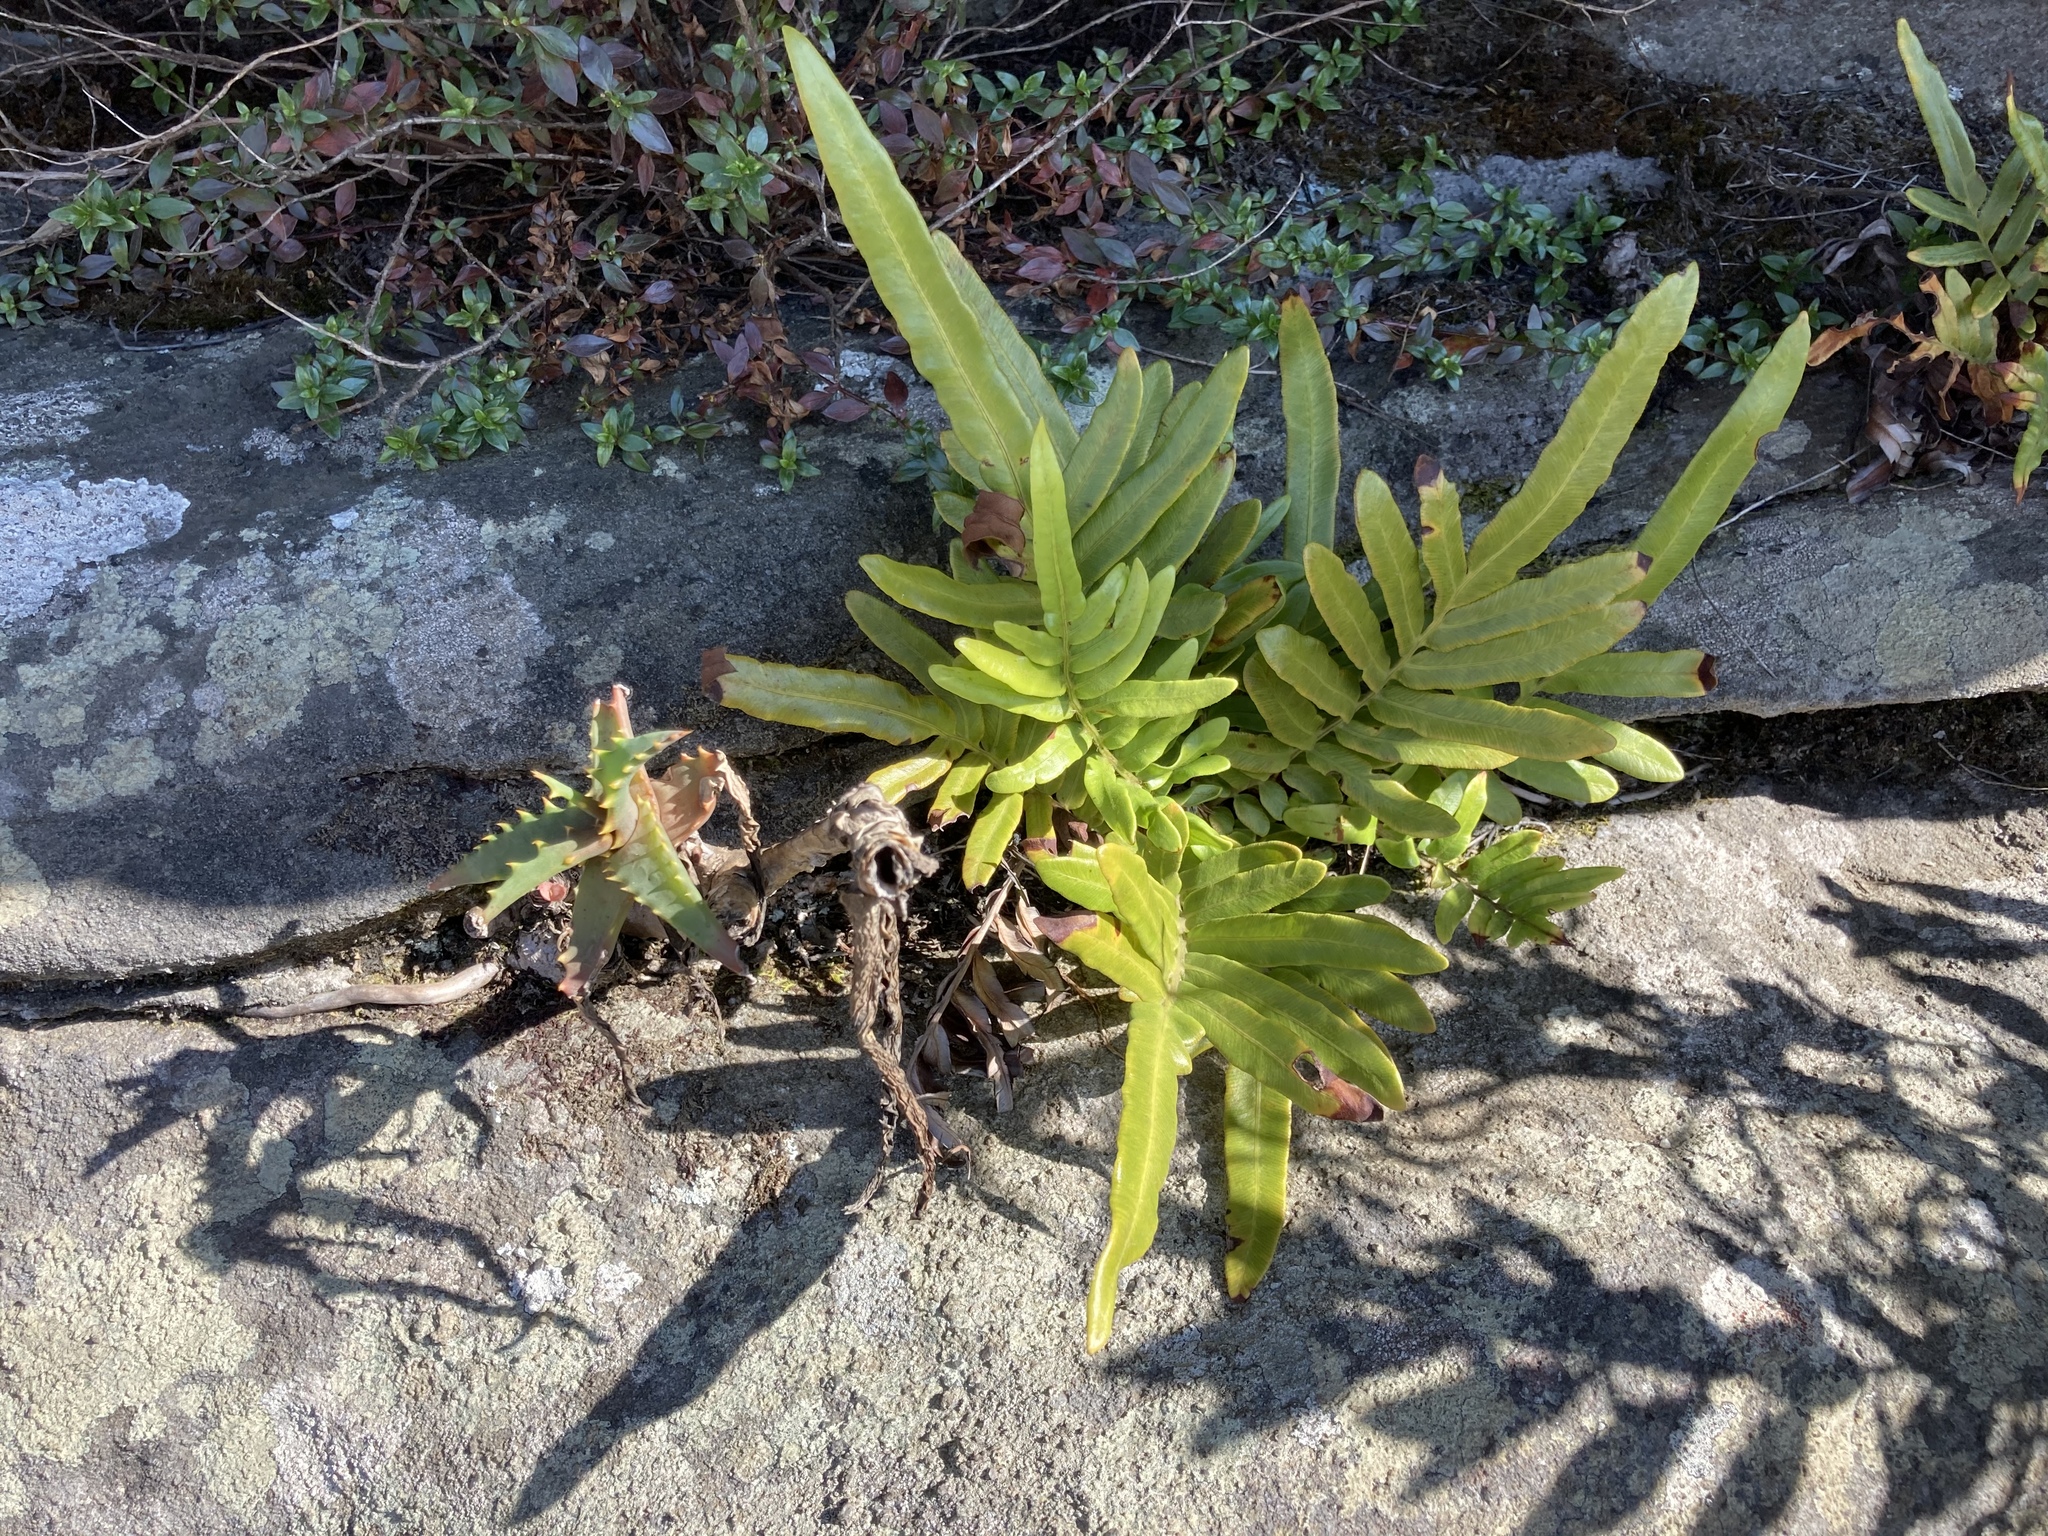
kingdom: Plantae
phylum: Tracheophyta
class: Polypodiopsida
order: Polypodiales
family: Pteridaceae
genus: Pteris
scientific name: Pteris vittata
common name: Ladder brake
